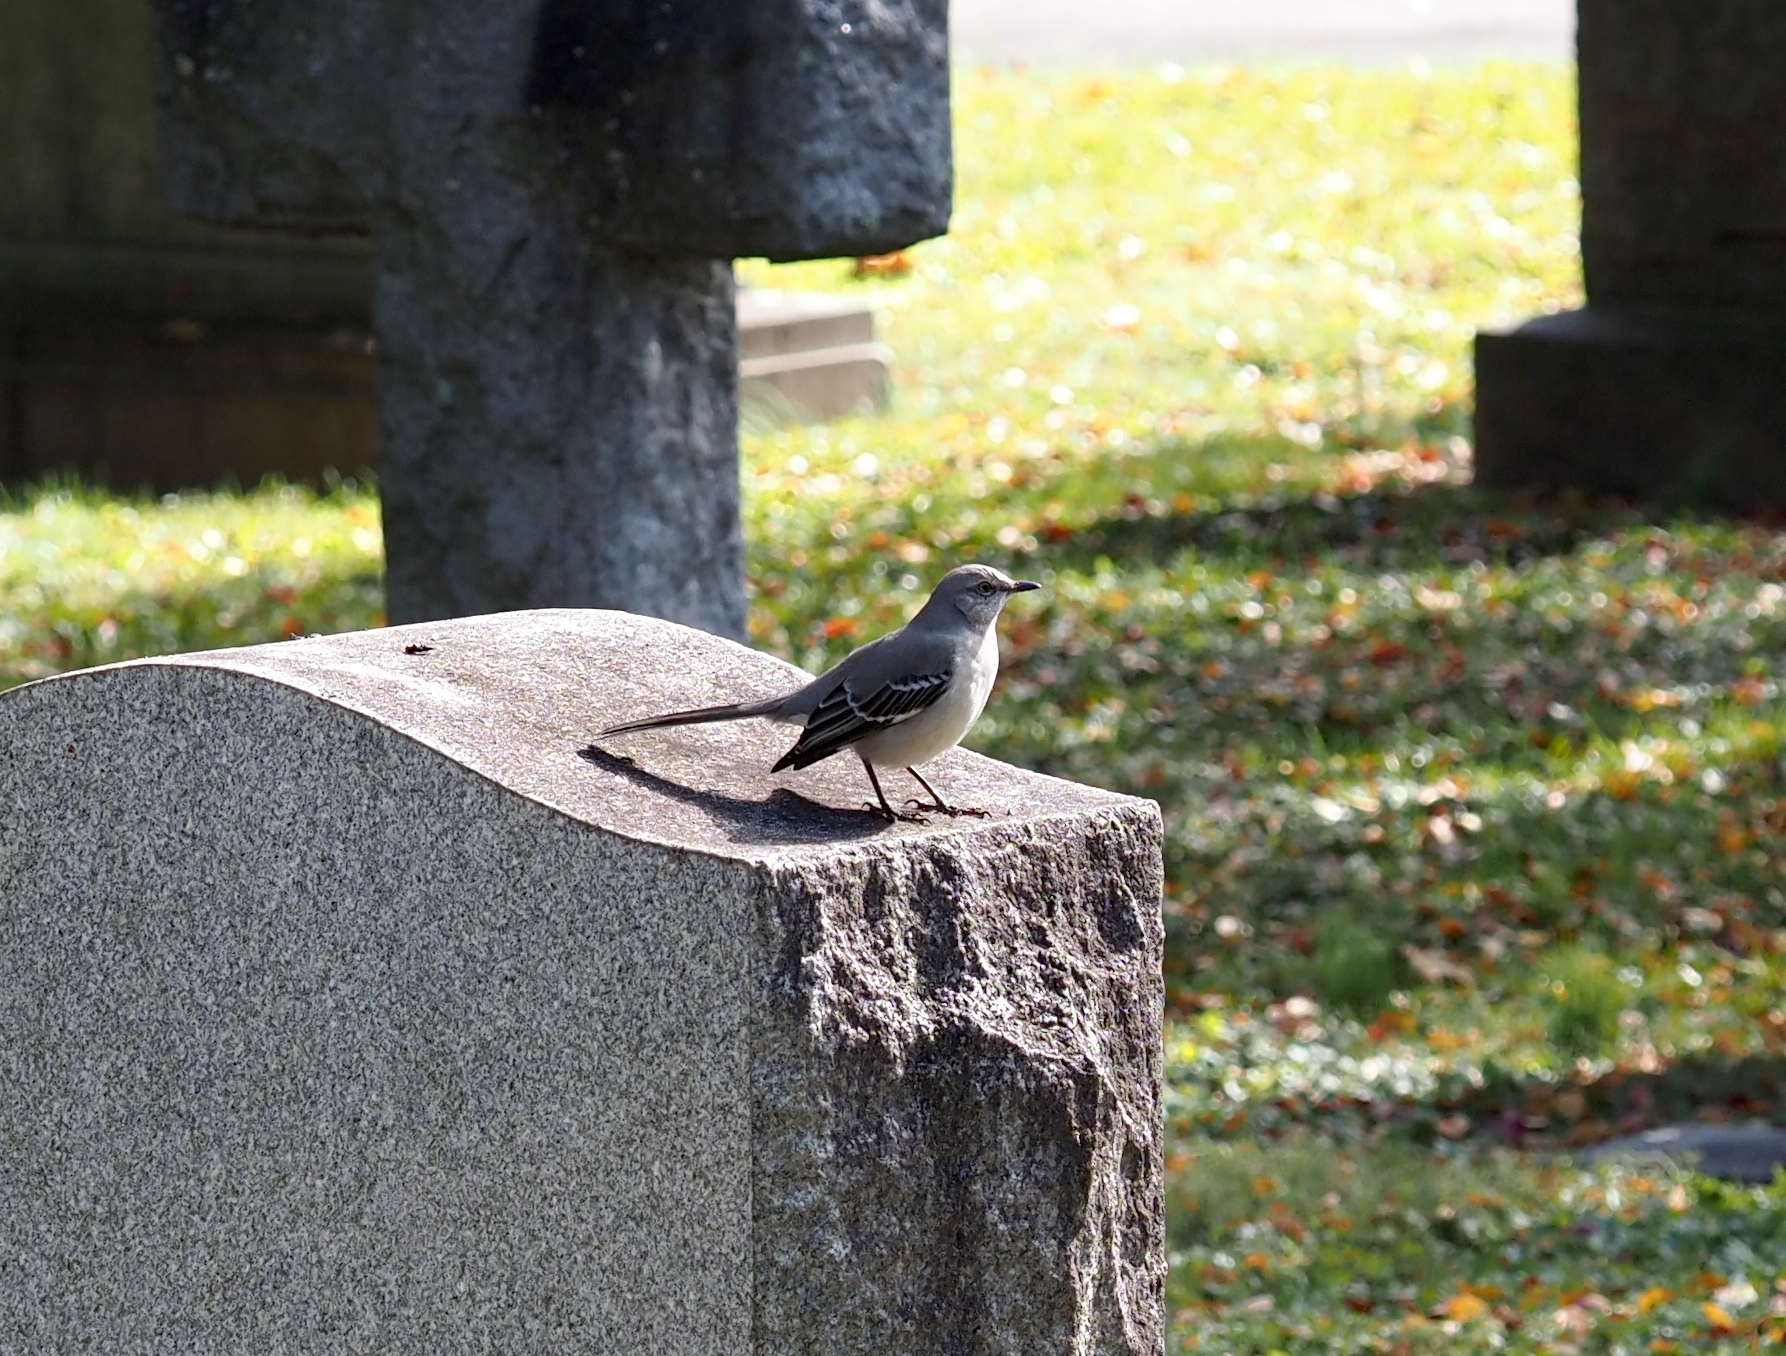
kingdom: Animalia
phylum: Chordata
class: Aves
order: Passeriformes
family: Mimidae
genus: Mimus
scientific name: Mimus polyglottos
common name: Northern mockingbird
